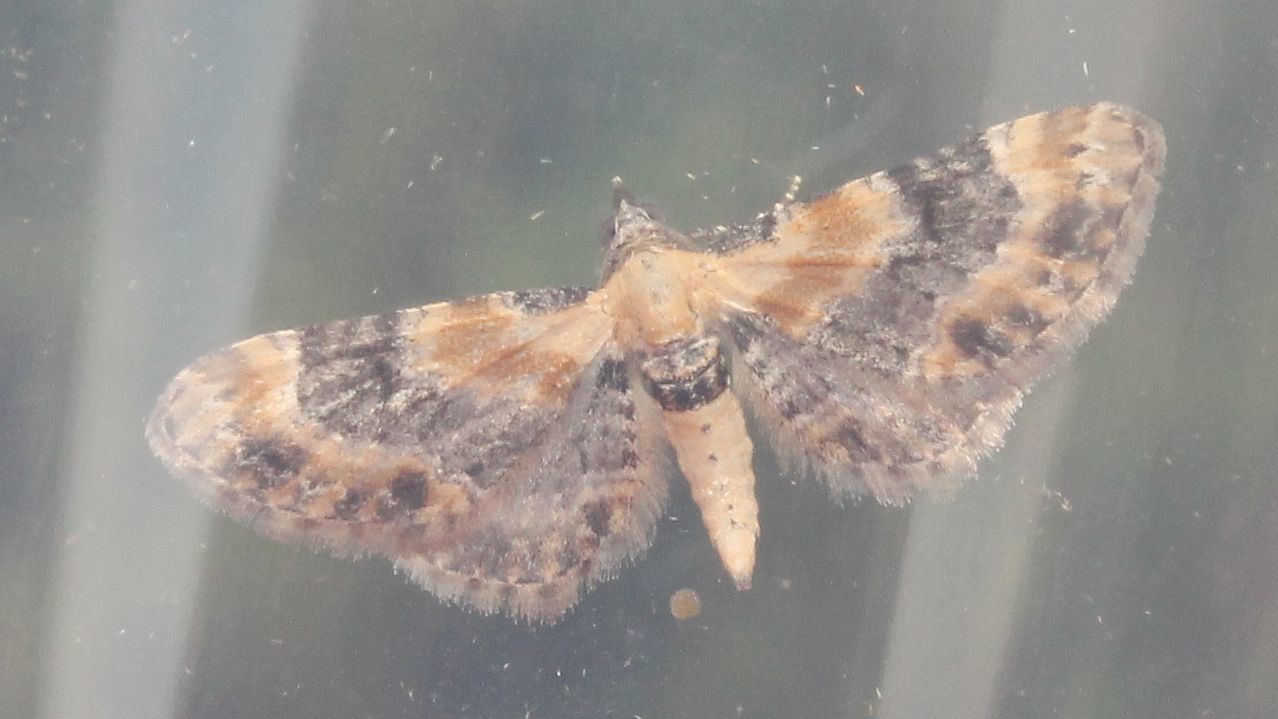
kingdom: Animalia
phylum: Arthropoda
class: Insecta
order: Lepidoptera
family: Geometridae
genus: Eupithecia
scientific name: Eupithecia linariata
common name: Toadflax pug
